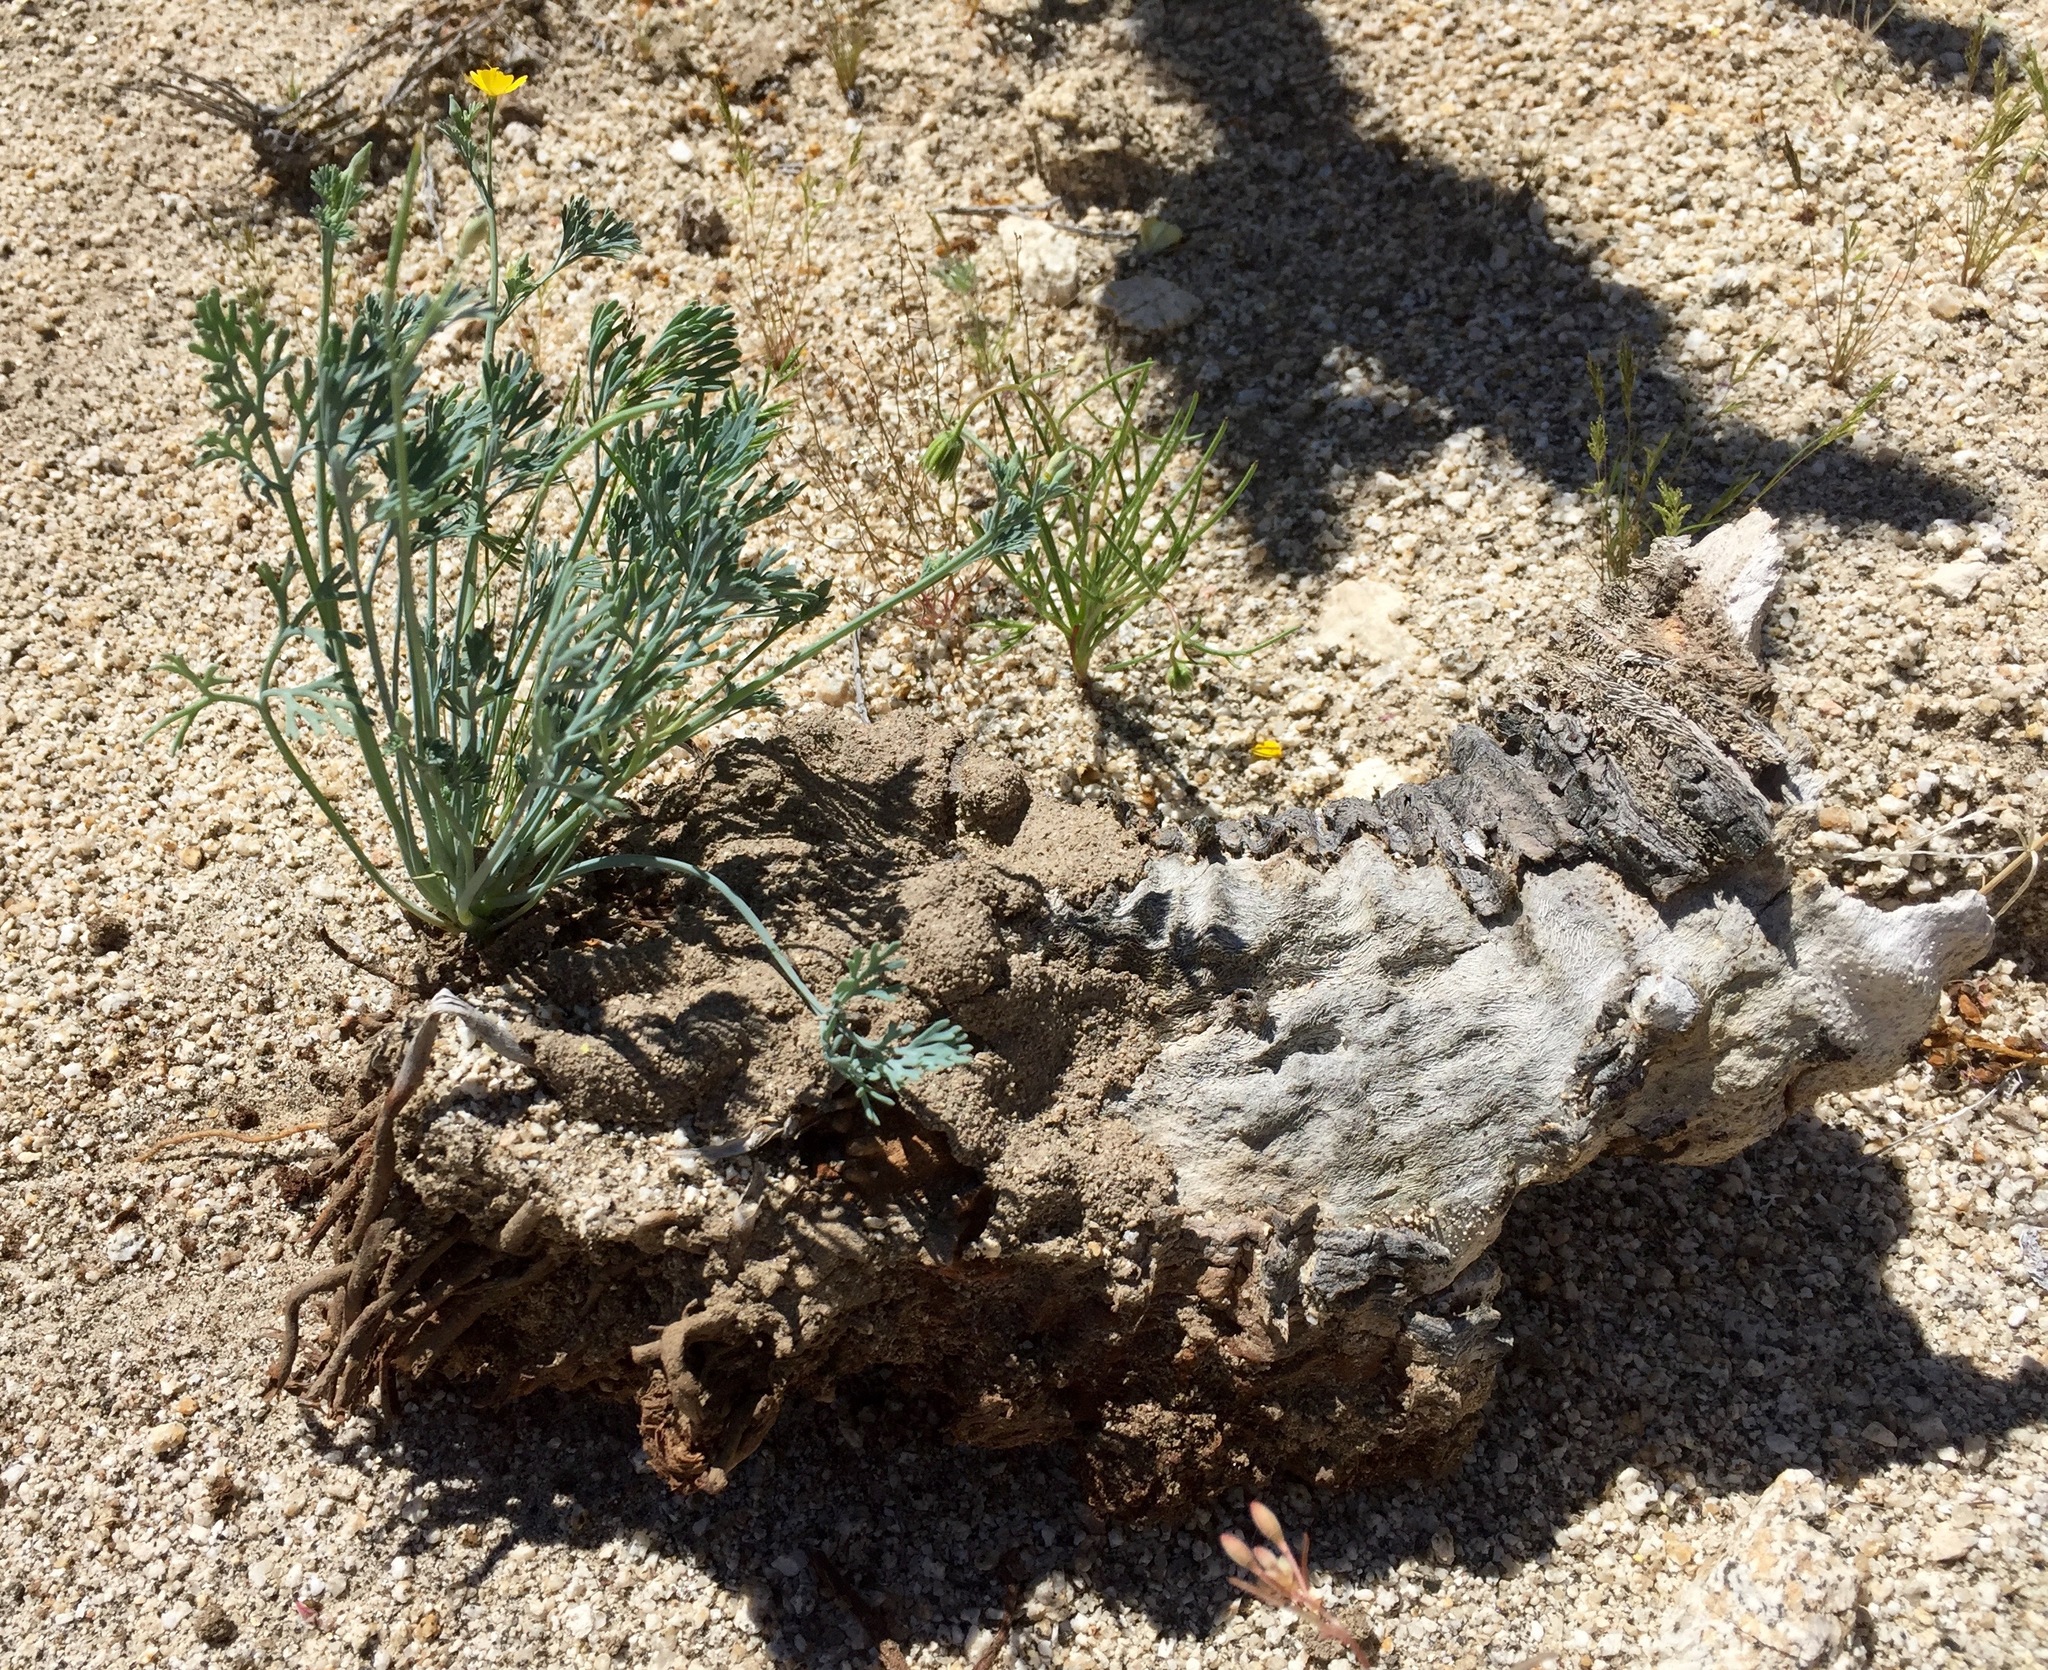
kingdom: Plantae
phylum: Tracheophyta
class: Magnoliopsida
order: Ranunculales
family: Papaveraceae
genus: Eschscholzia
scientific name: Eschscholzia minutiflora
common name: Small-flower california-poppy
